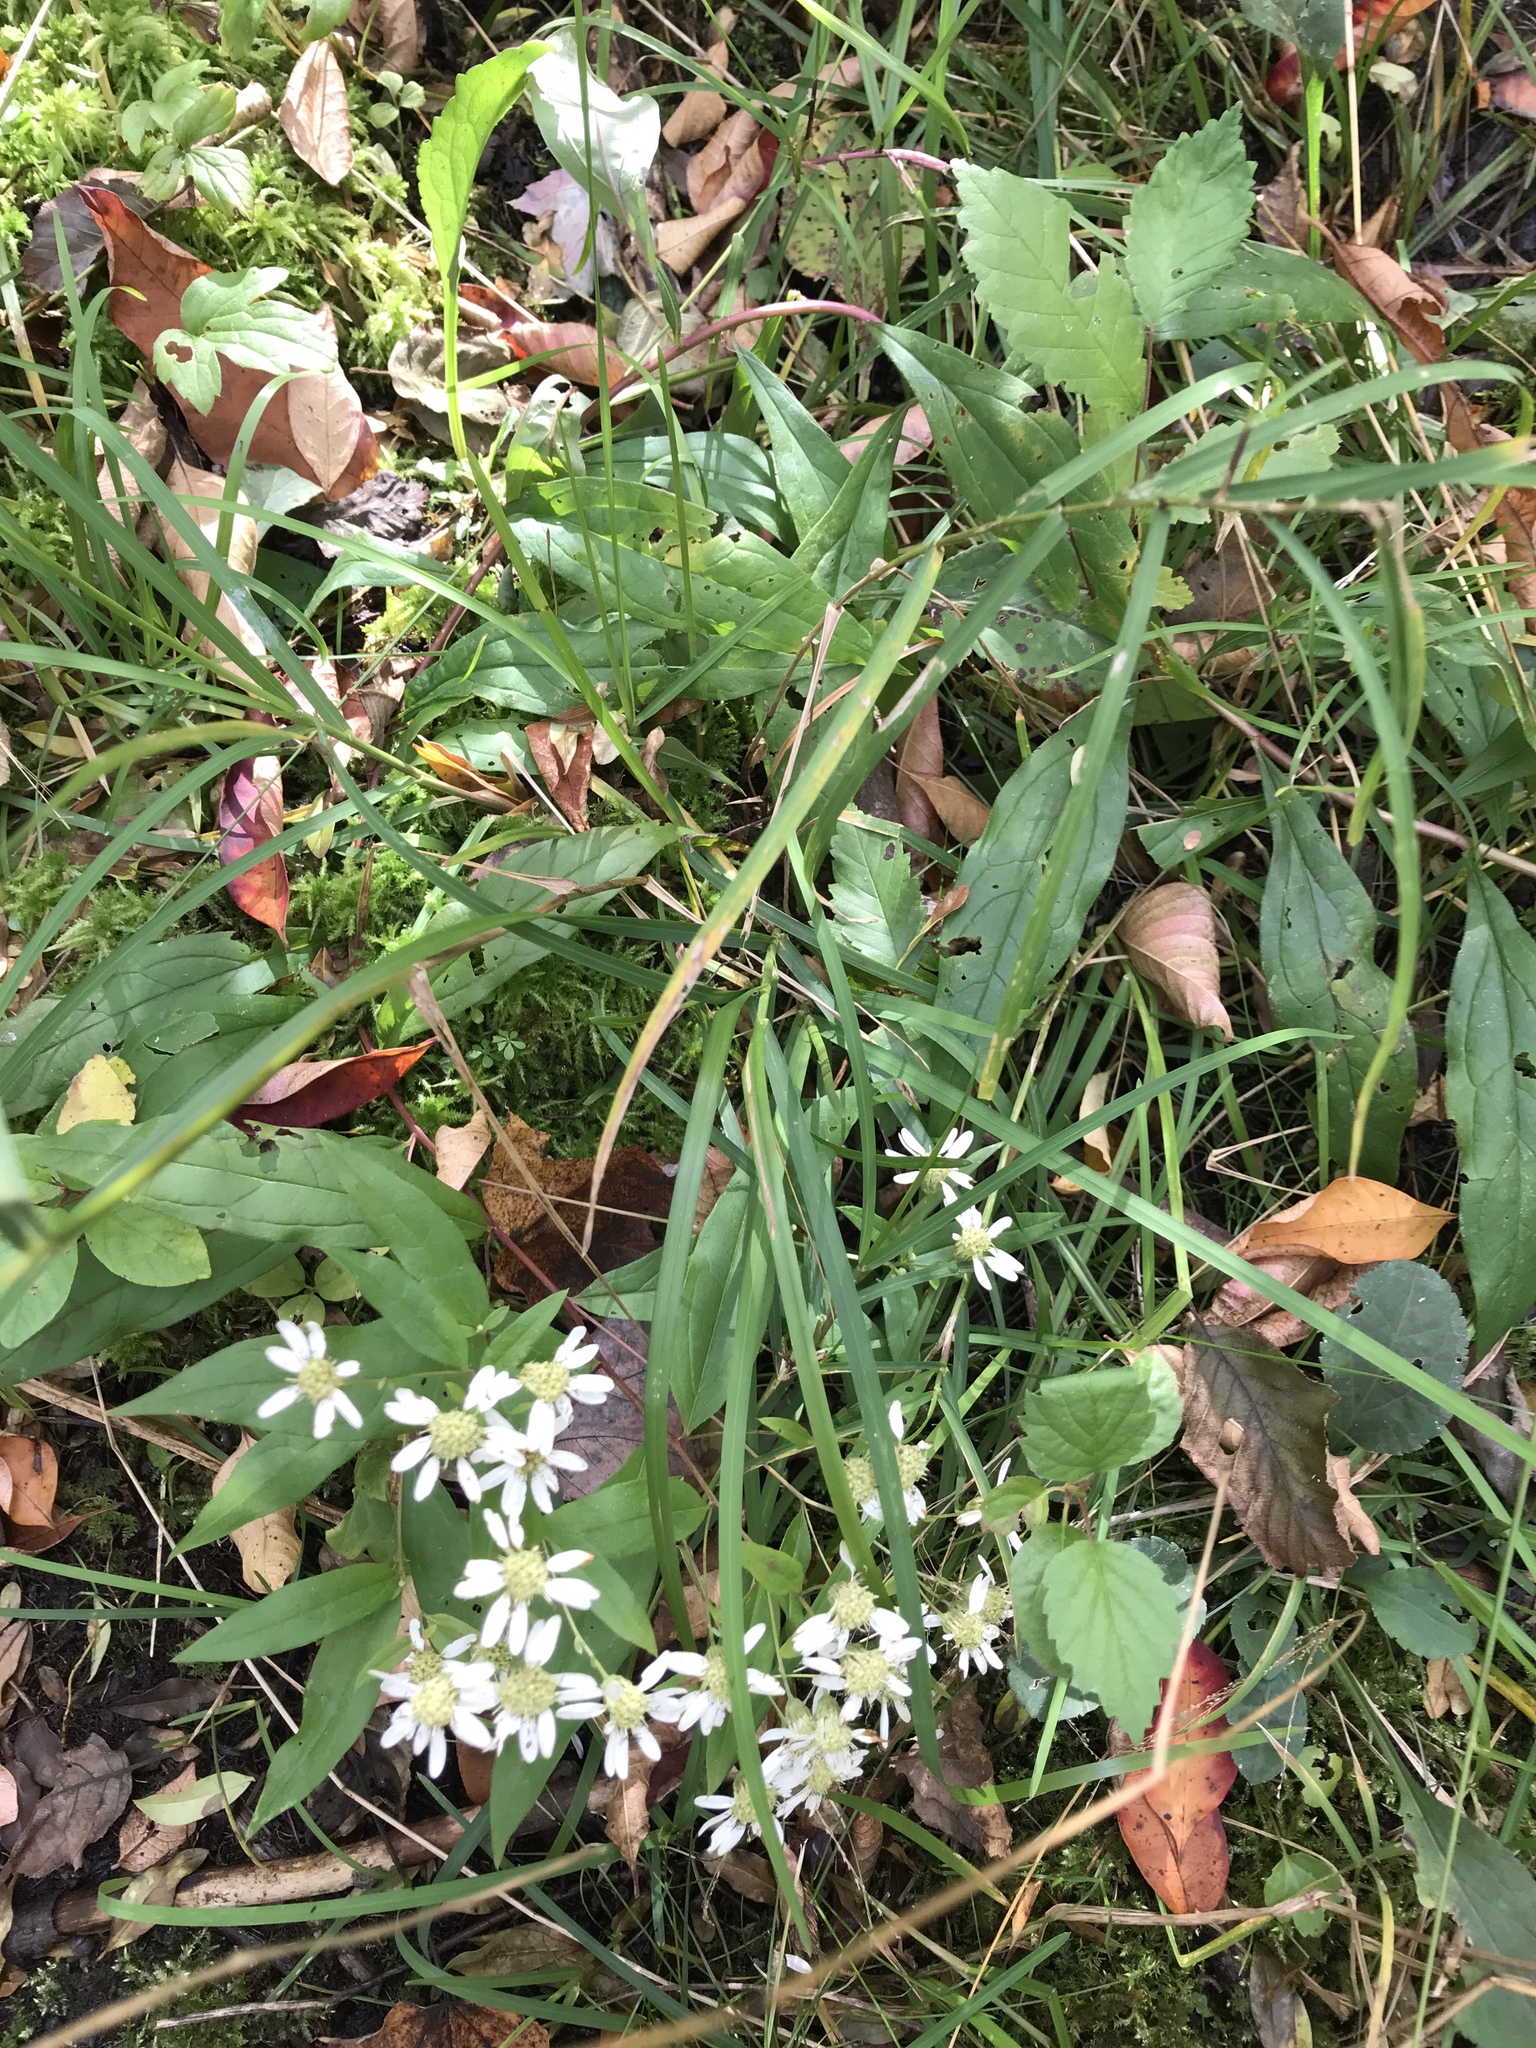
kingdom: Plantae
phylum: Tracheophyta
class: Magnoliopsida
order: Asterales
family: Asteraceae
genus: Doellingeria
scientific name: Doellingeria umbellata
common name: Flat-top white aster
